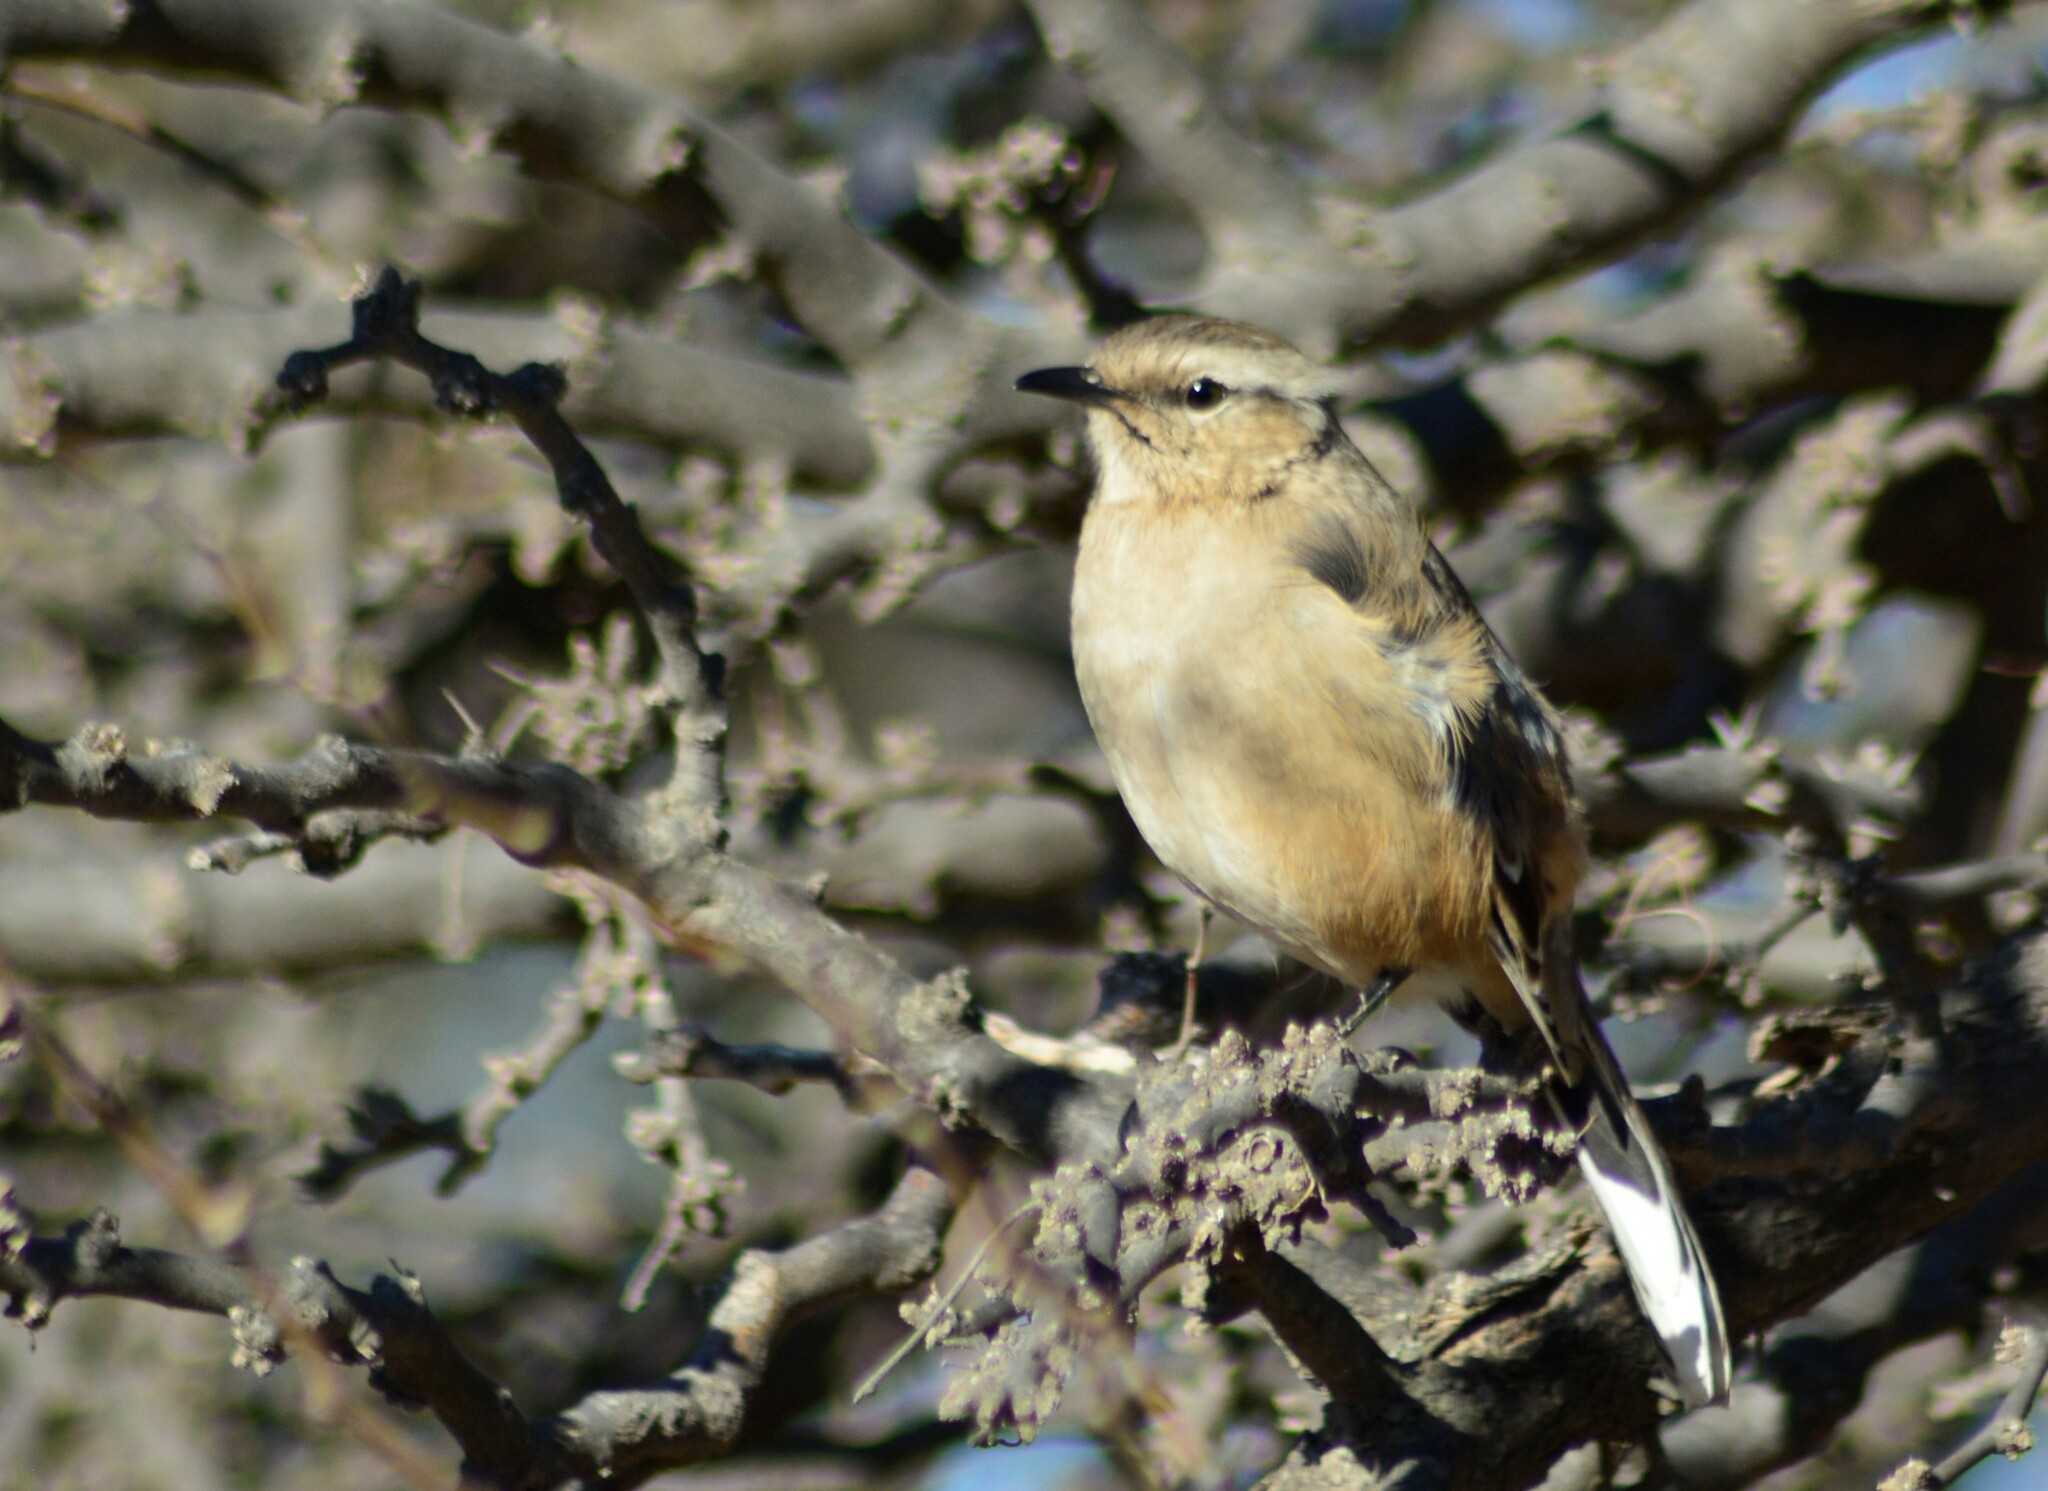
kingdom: Animalia
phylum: Chordata
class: Aves
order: Passeriformes
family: Mimidae
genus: Mimus
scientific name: Mimus patagonicus
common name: Patagonian mockingbird
